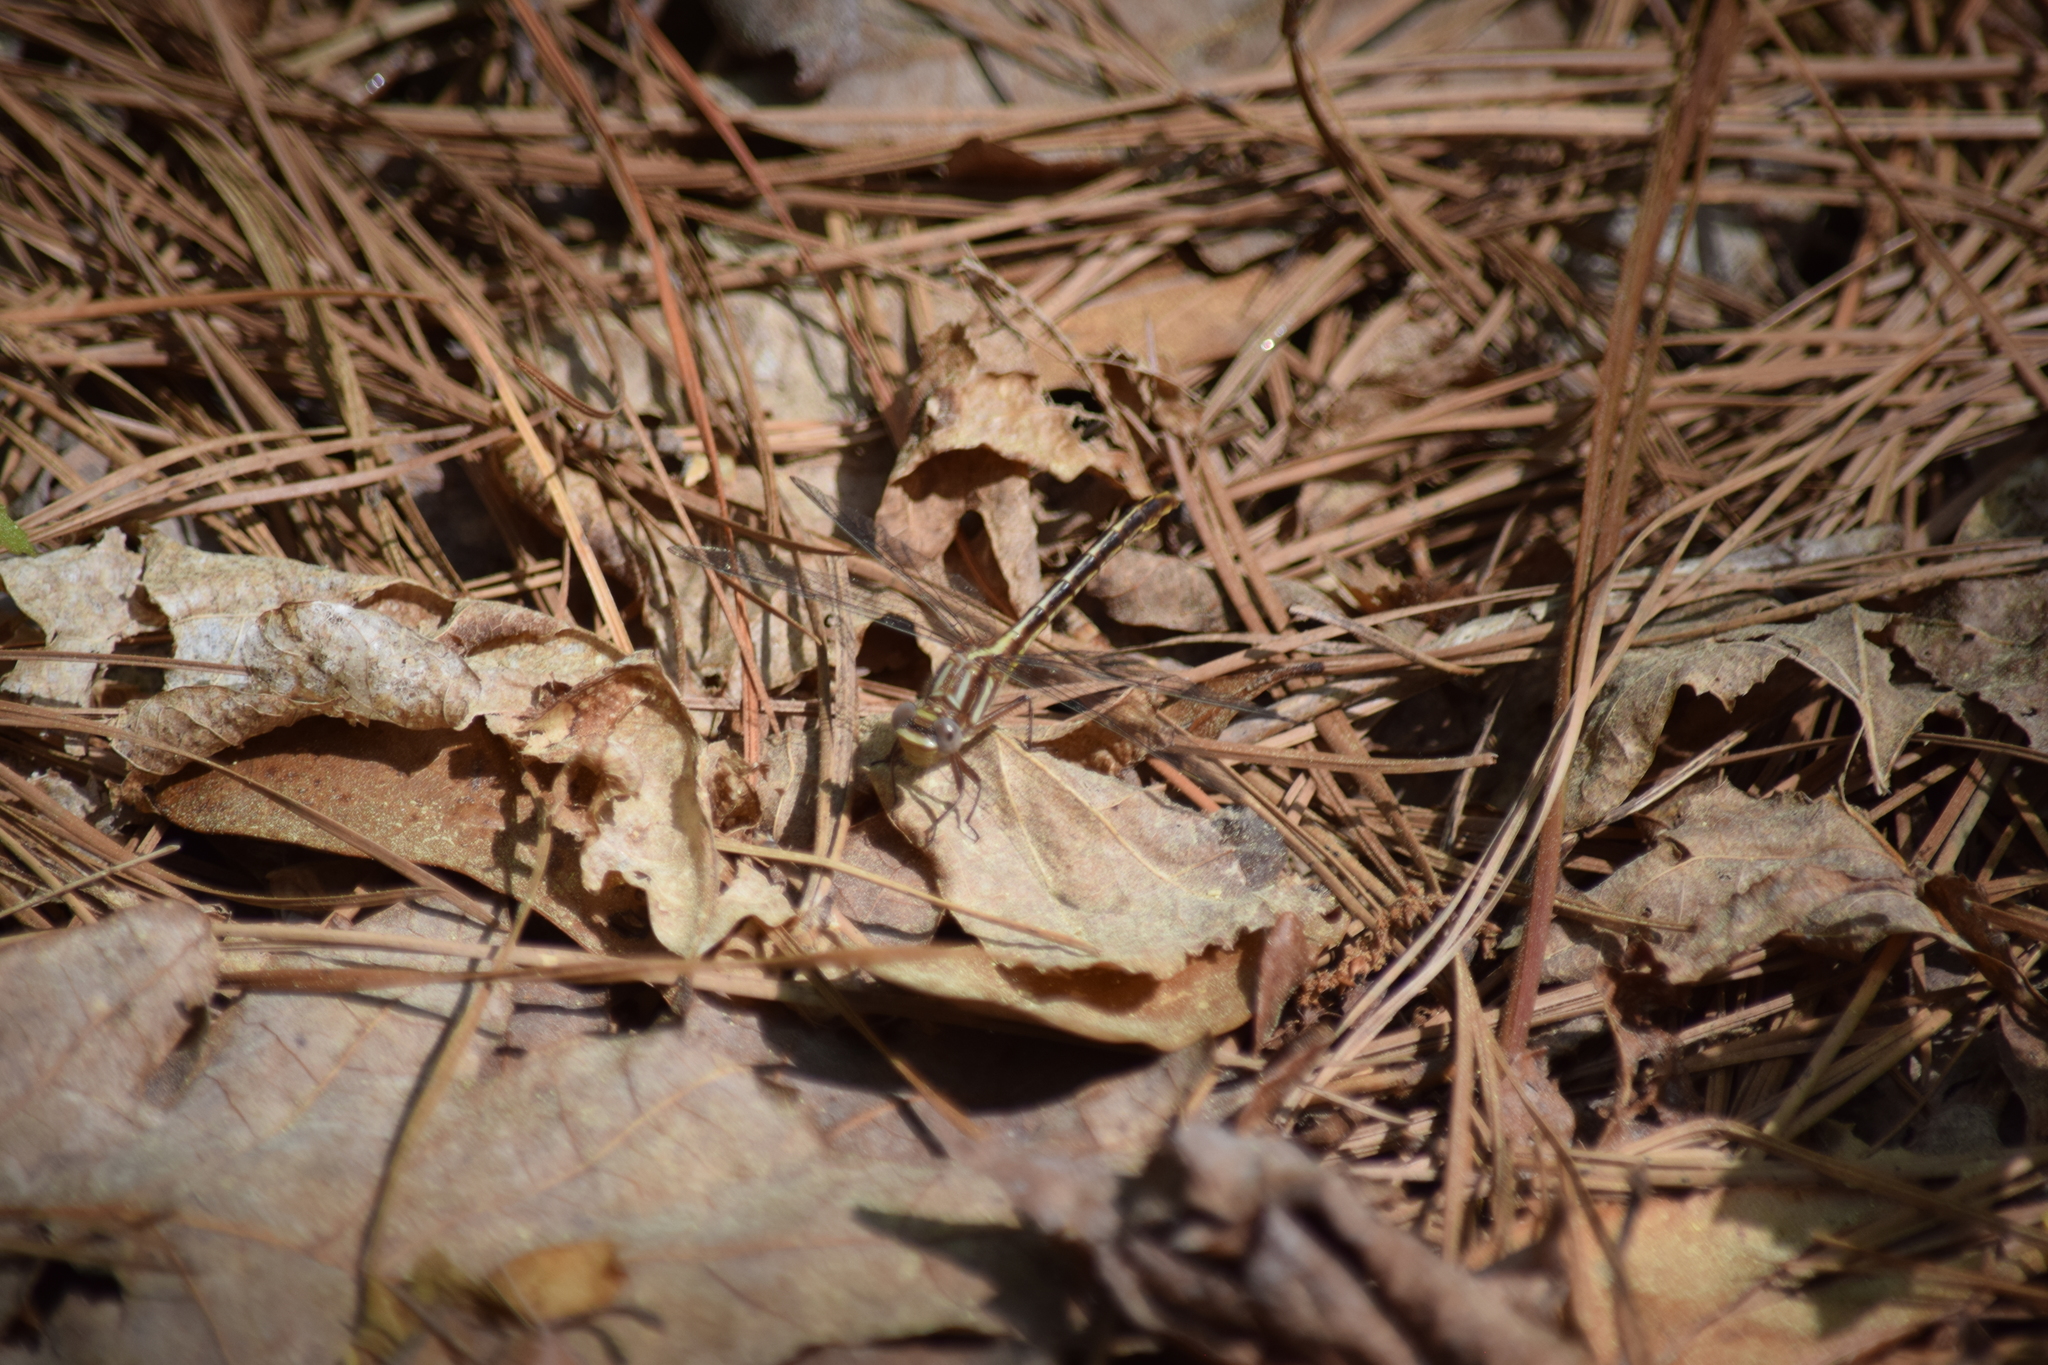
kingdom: Animalia
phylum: Arthropoda
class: Insecta
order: Odonata
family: Gomphidae
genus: Phanogomphus
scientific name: Phanogomphus lividus
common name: Ashy clubtail
